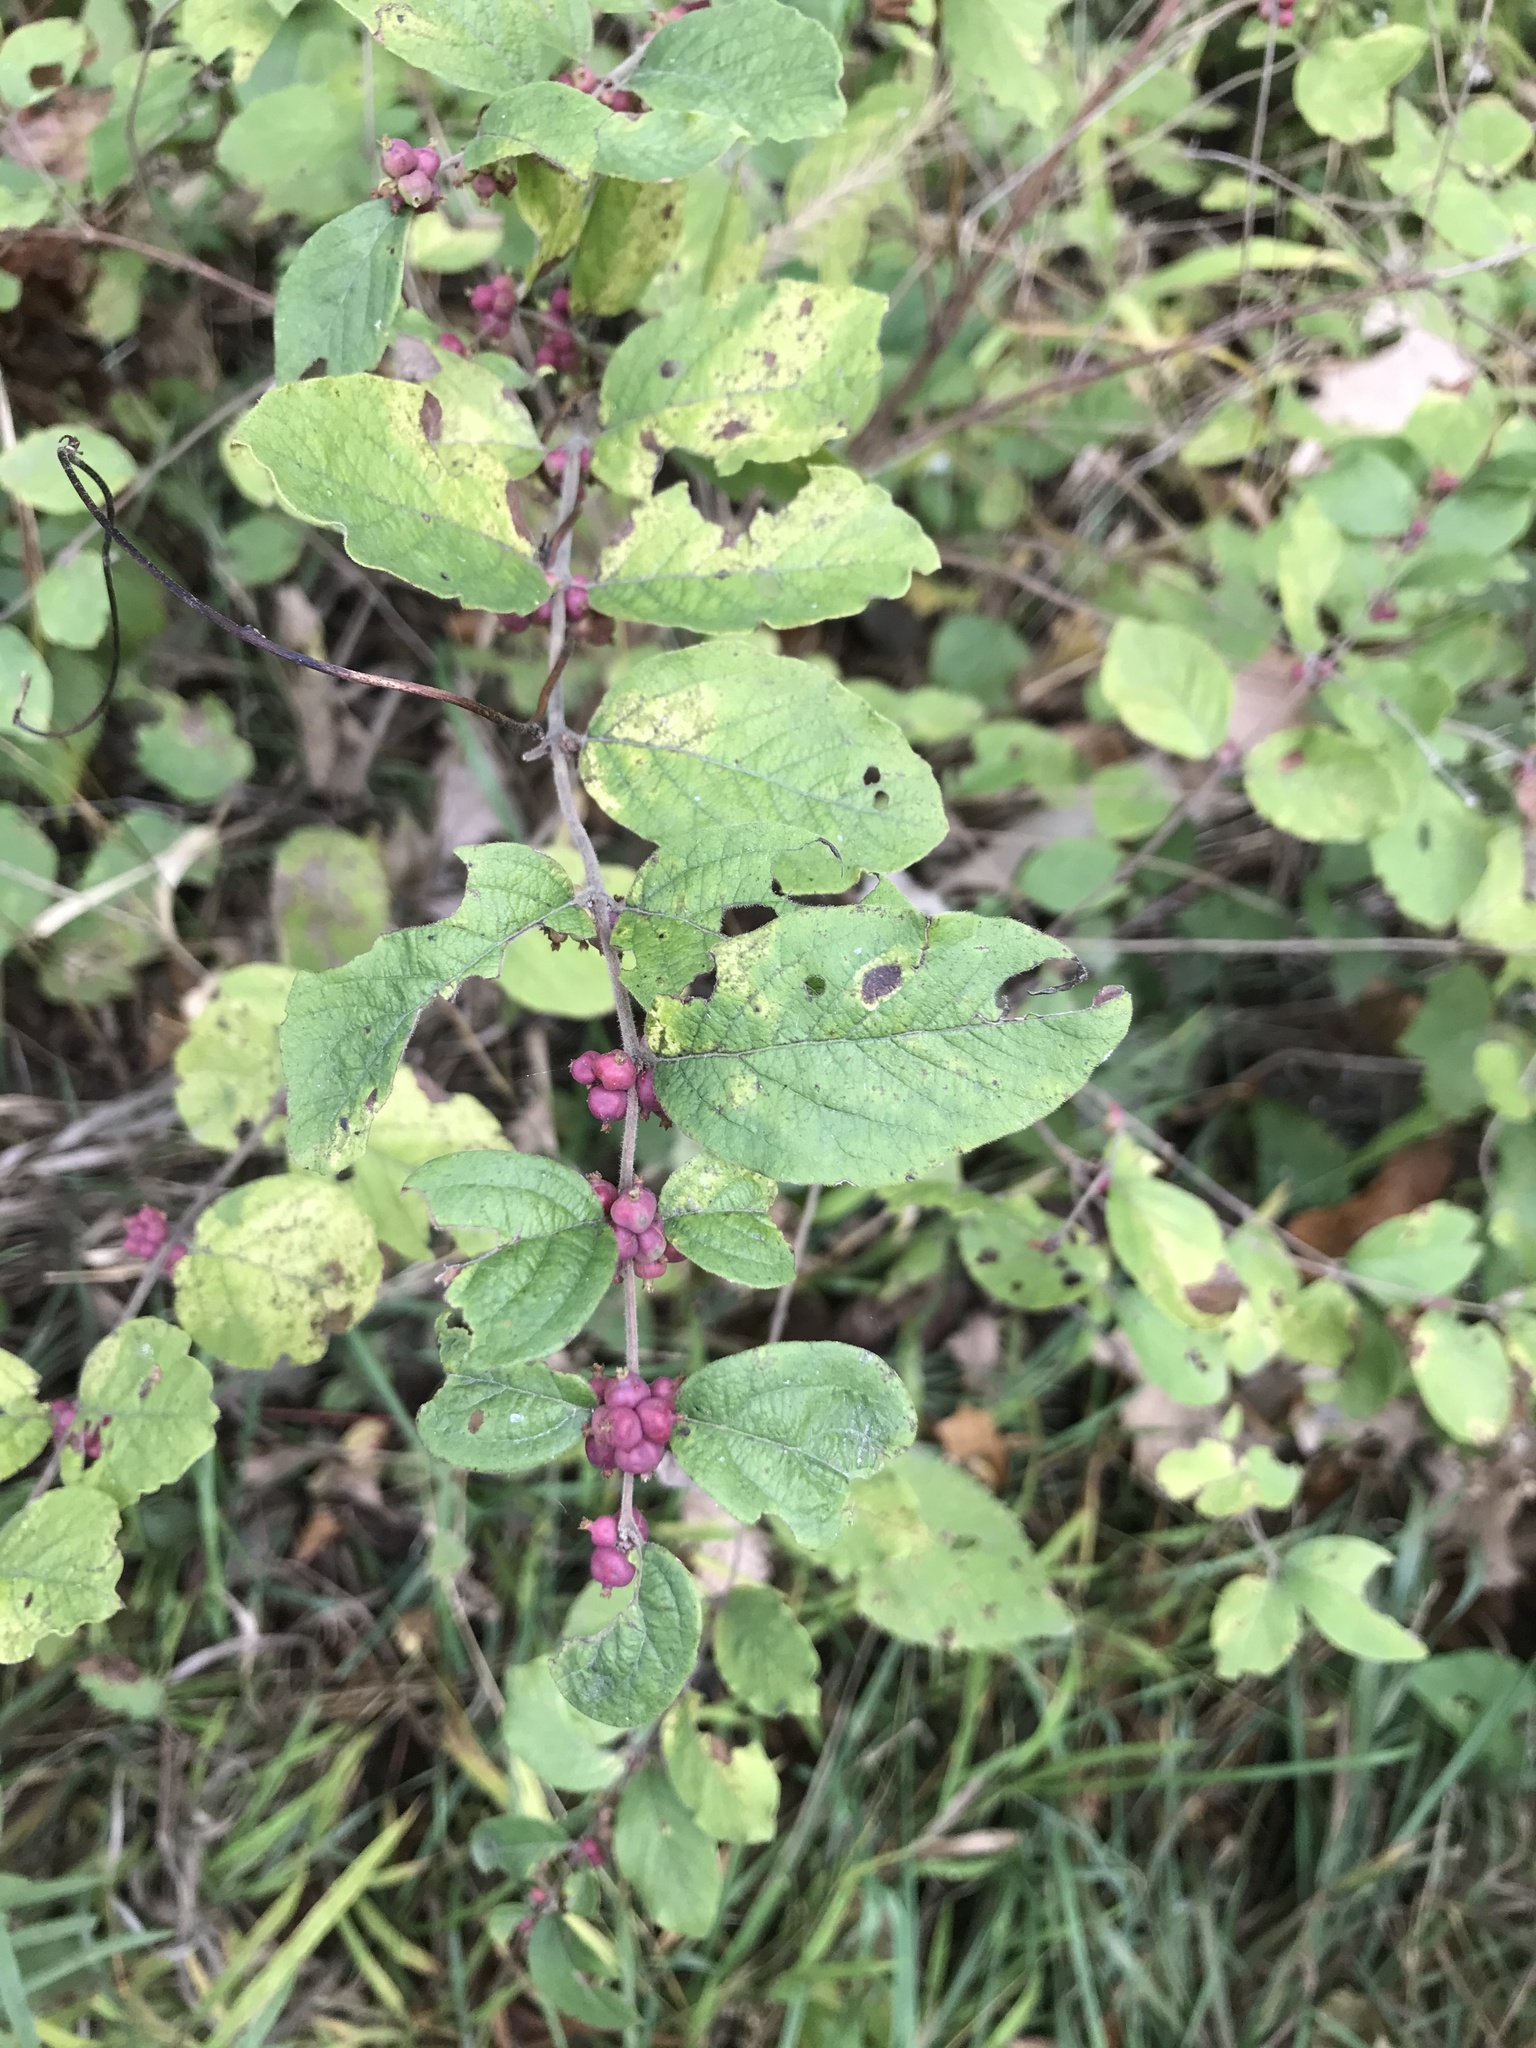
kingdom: Plantae
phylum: Tracheophyta
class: Magnoliopsida
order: Dipsacales
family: Caprifoliaceae
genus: Symphoricarpos
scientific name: Symphoricarpos orbiculatus
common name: Coralberry
